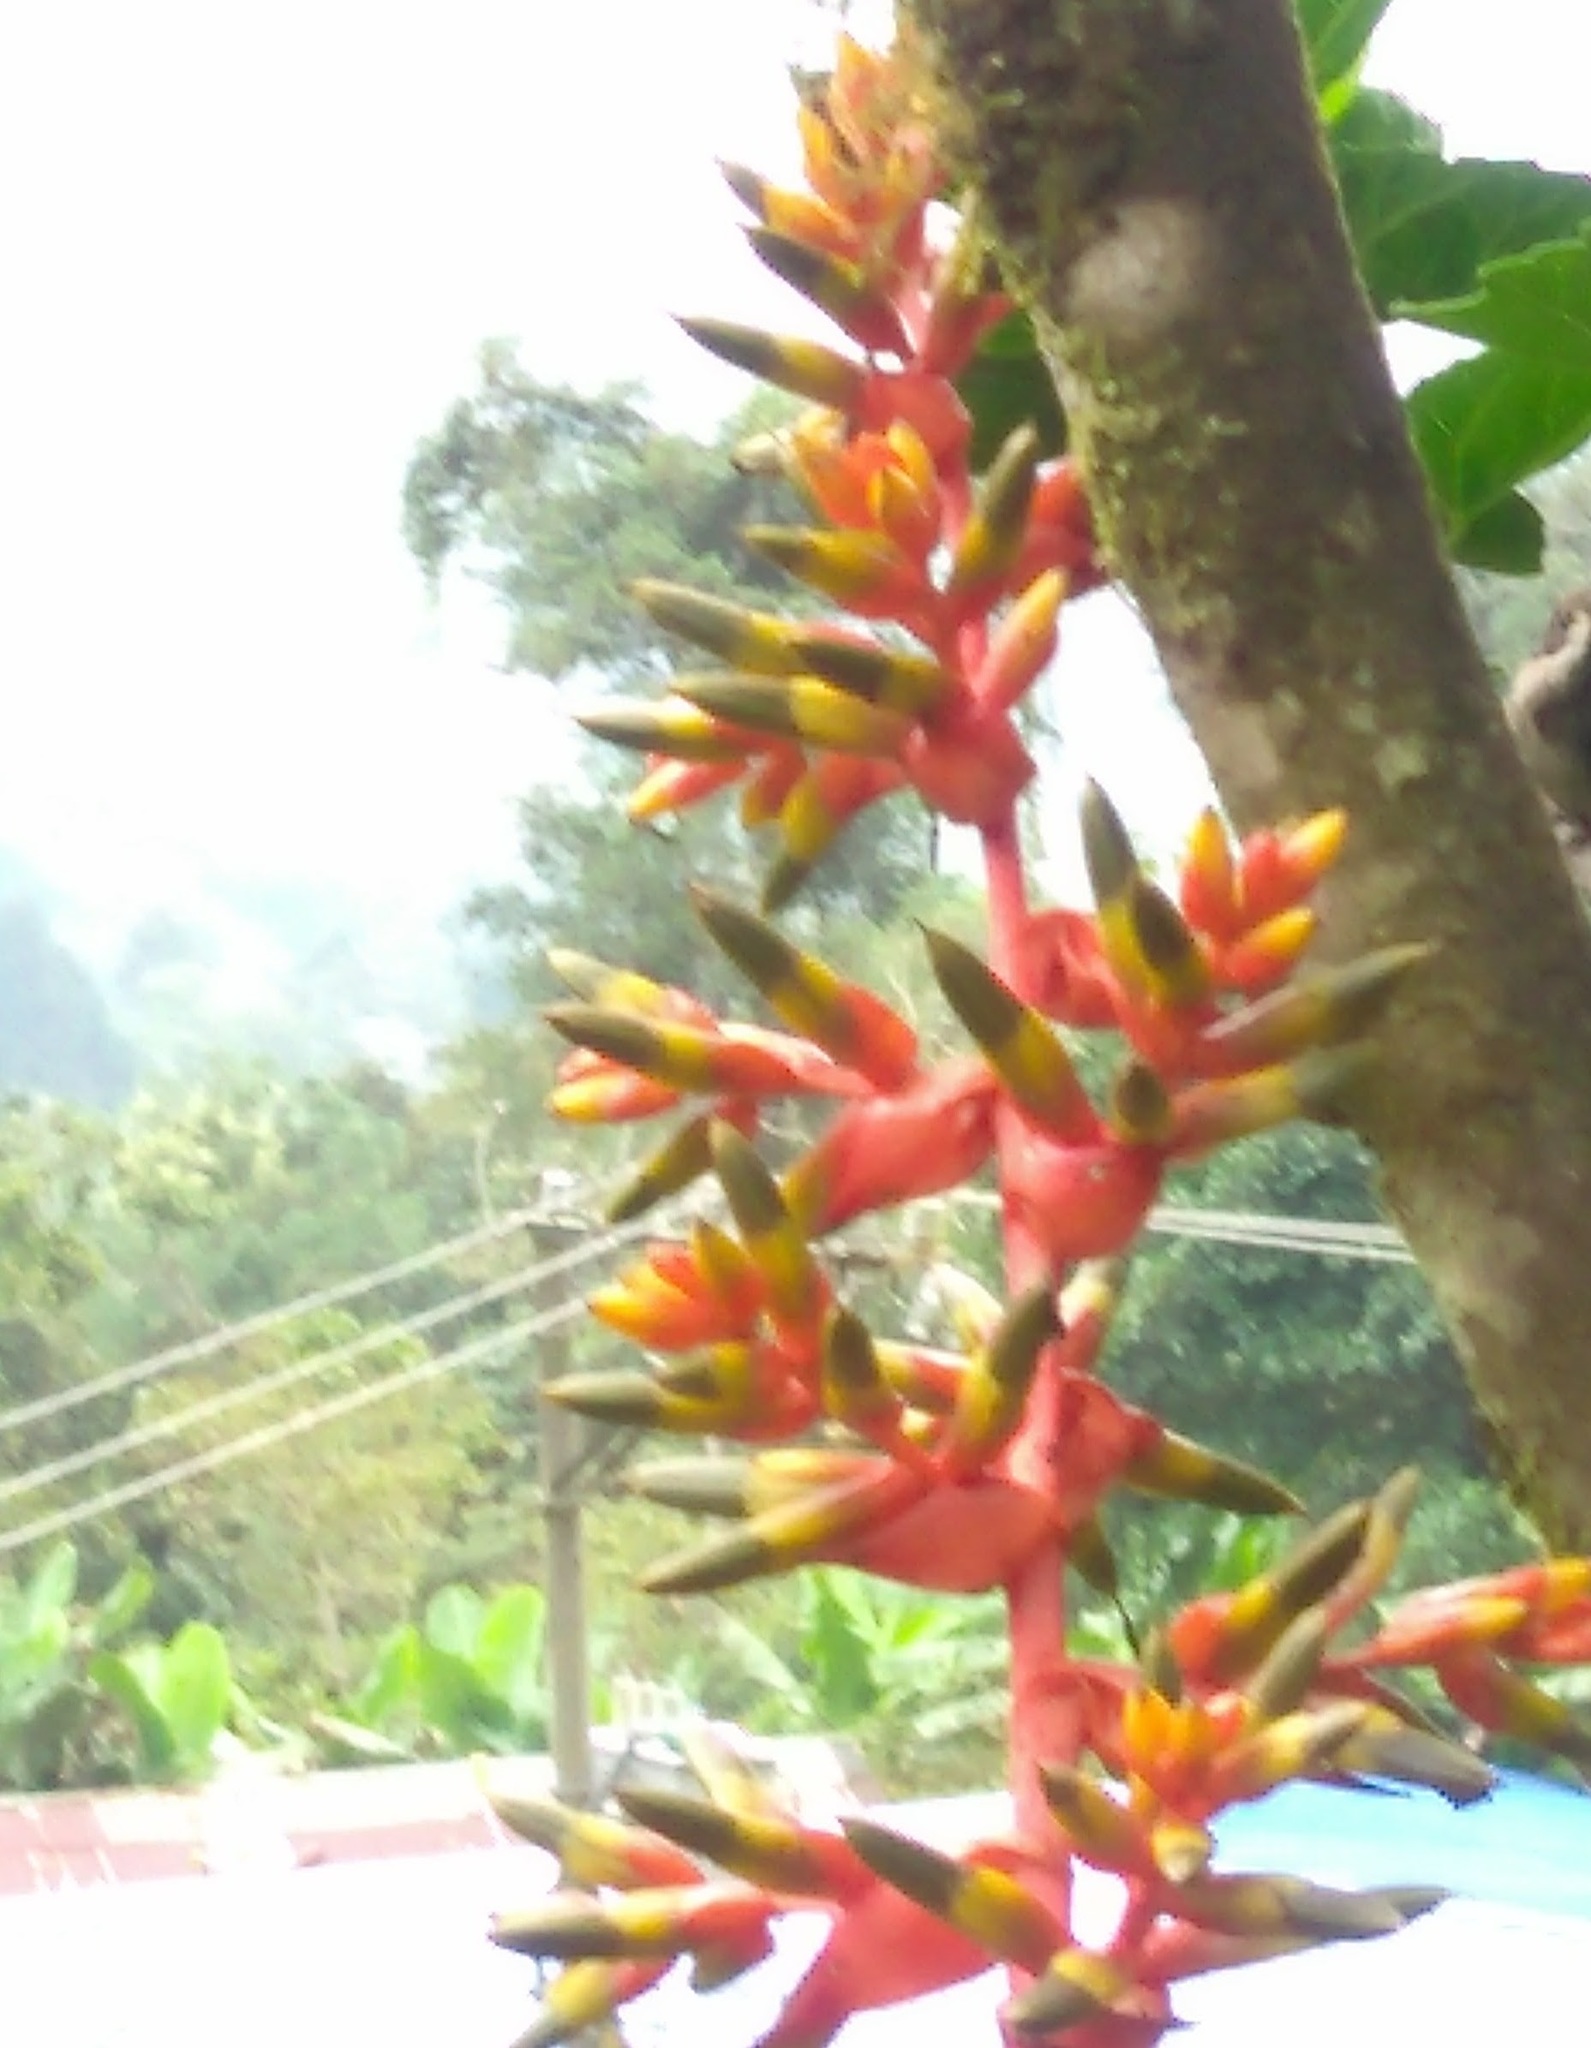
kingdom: Plantae
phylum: Tracheophyta
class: Liliopsida
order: Poales
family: Bromeliaceae
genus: Guzmania
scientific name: Guzmania multiflora
